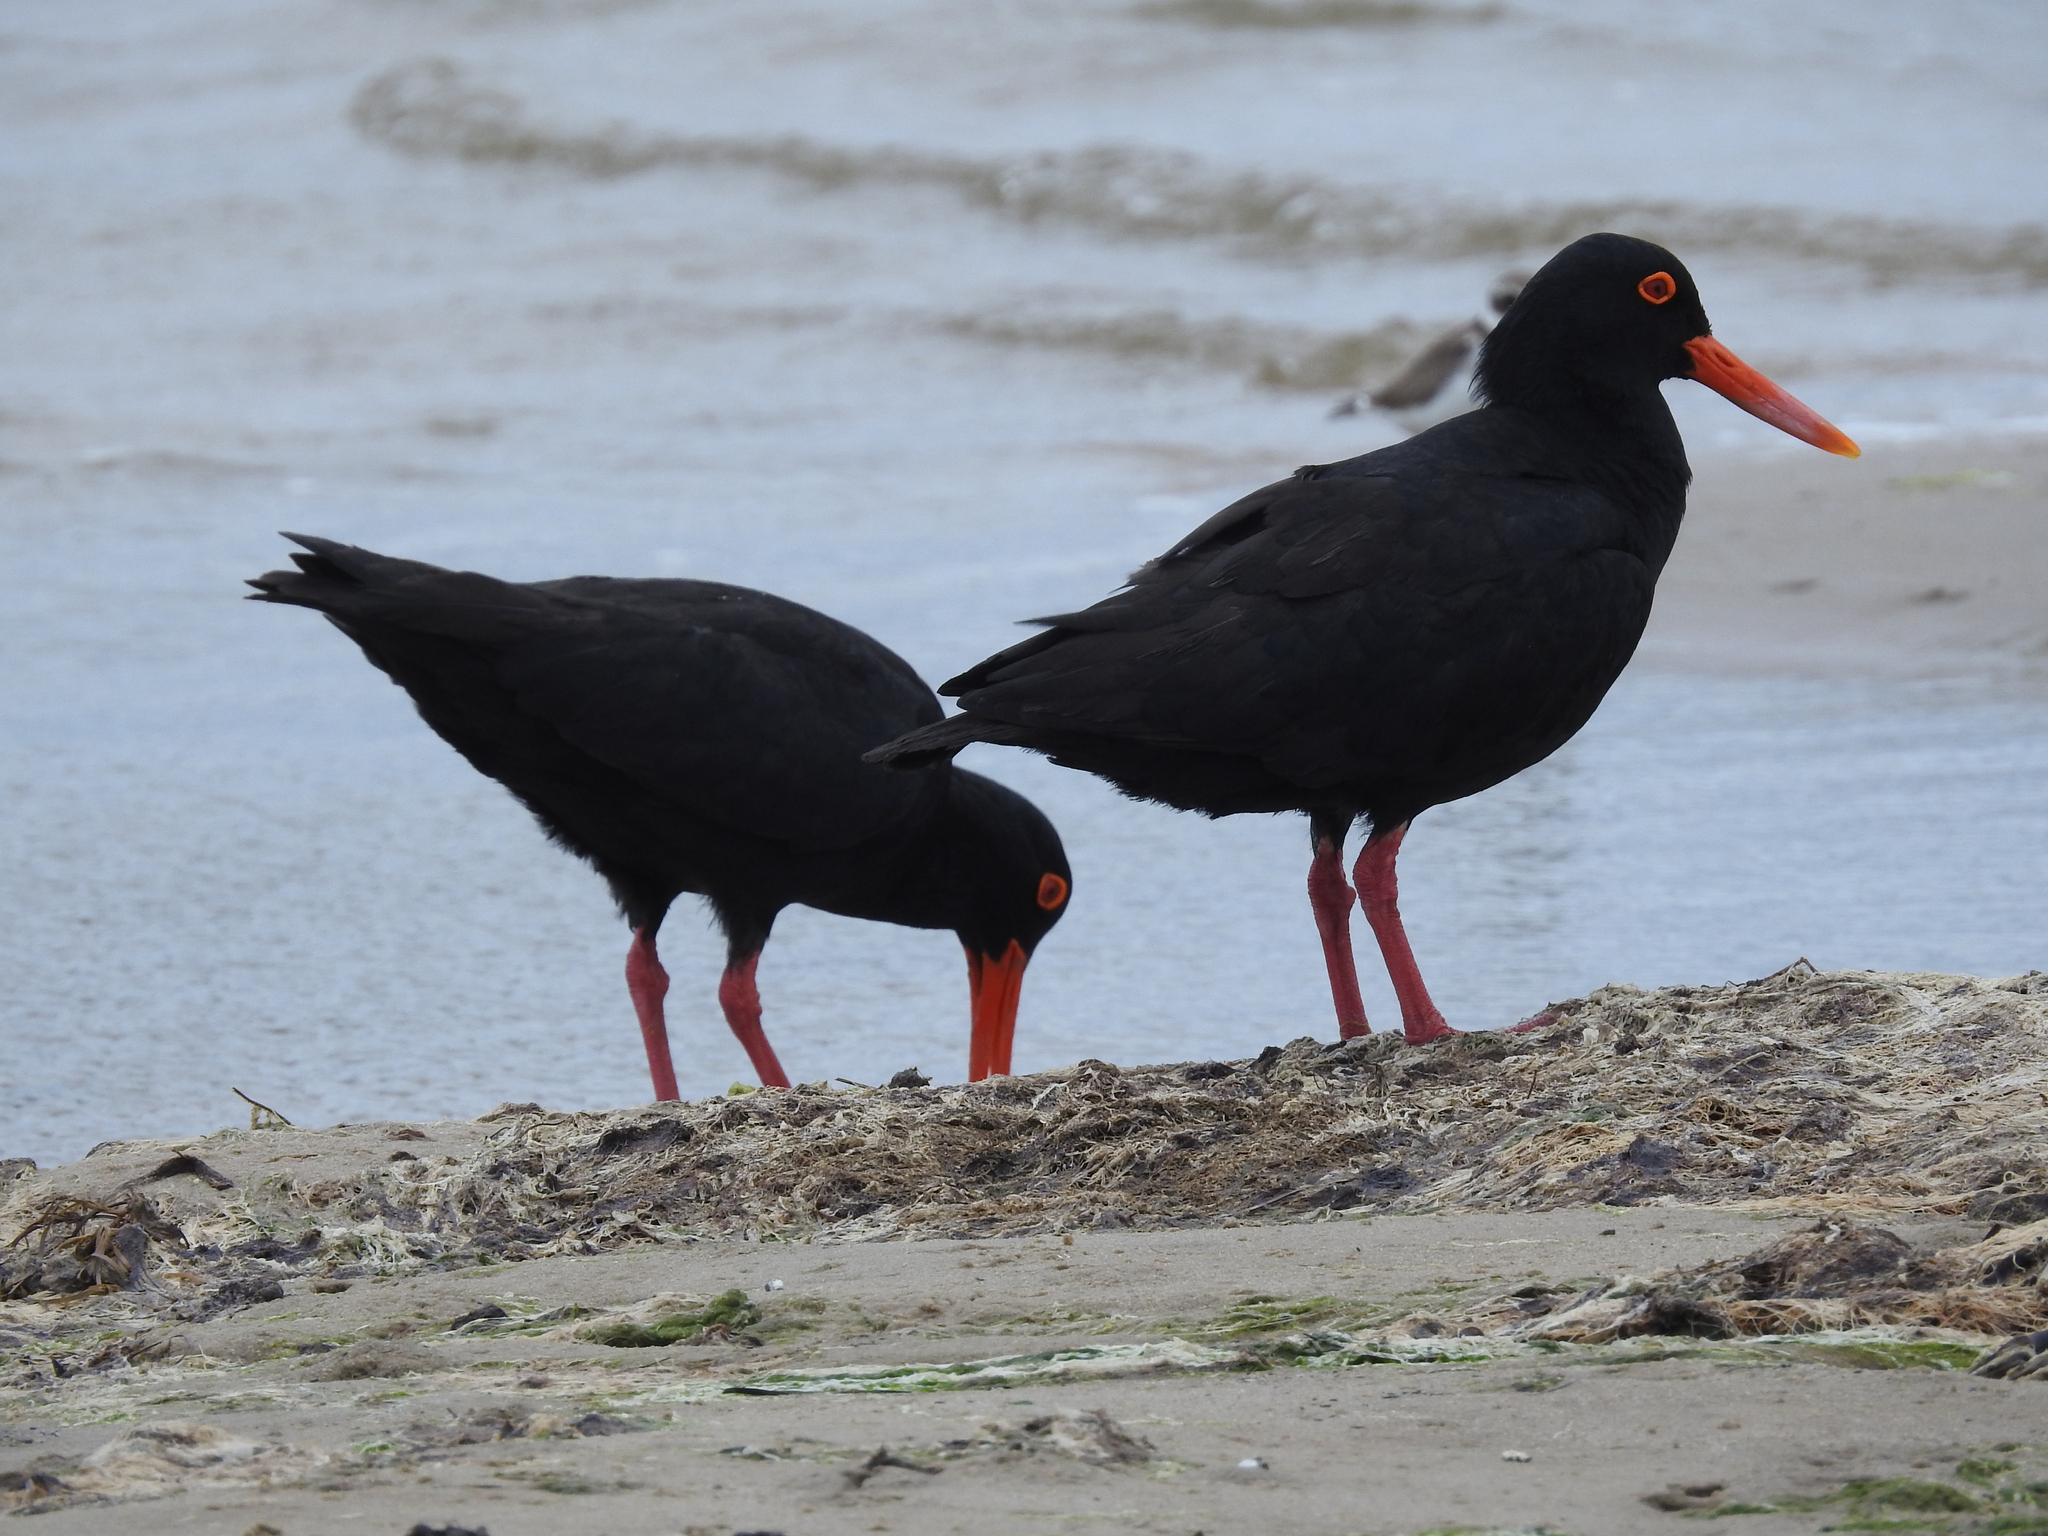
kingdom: Animalia
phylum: Chordata
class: Aves
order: Charadriiformes
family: Haematopodidae
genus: Haematopus
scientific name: Haematopus moquini
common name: African oystercatcher
